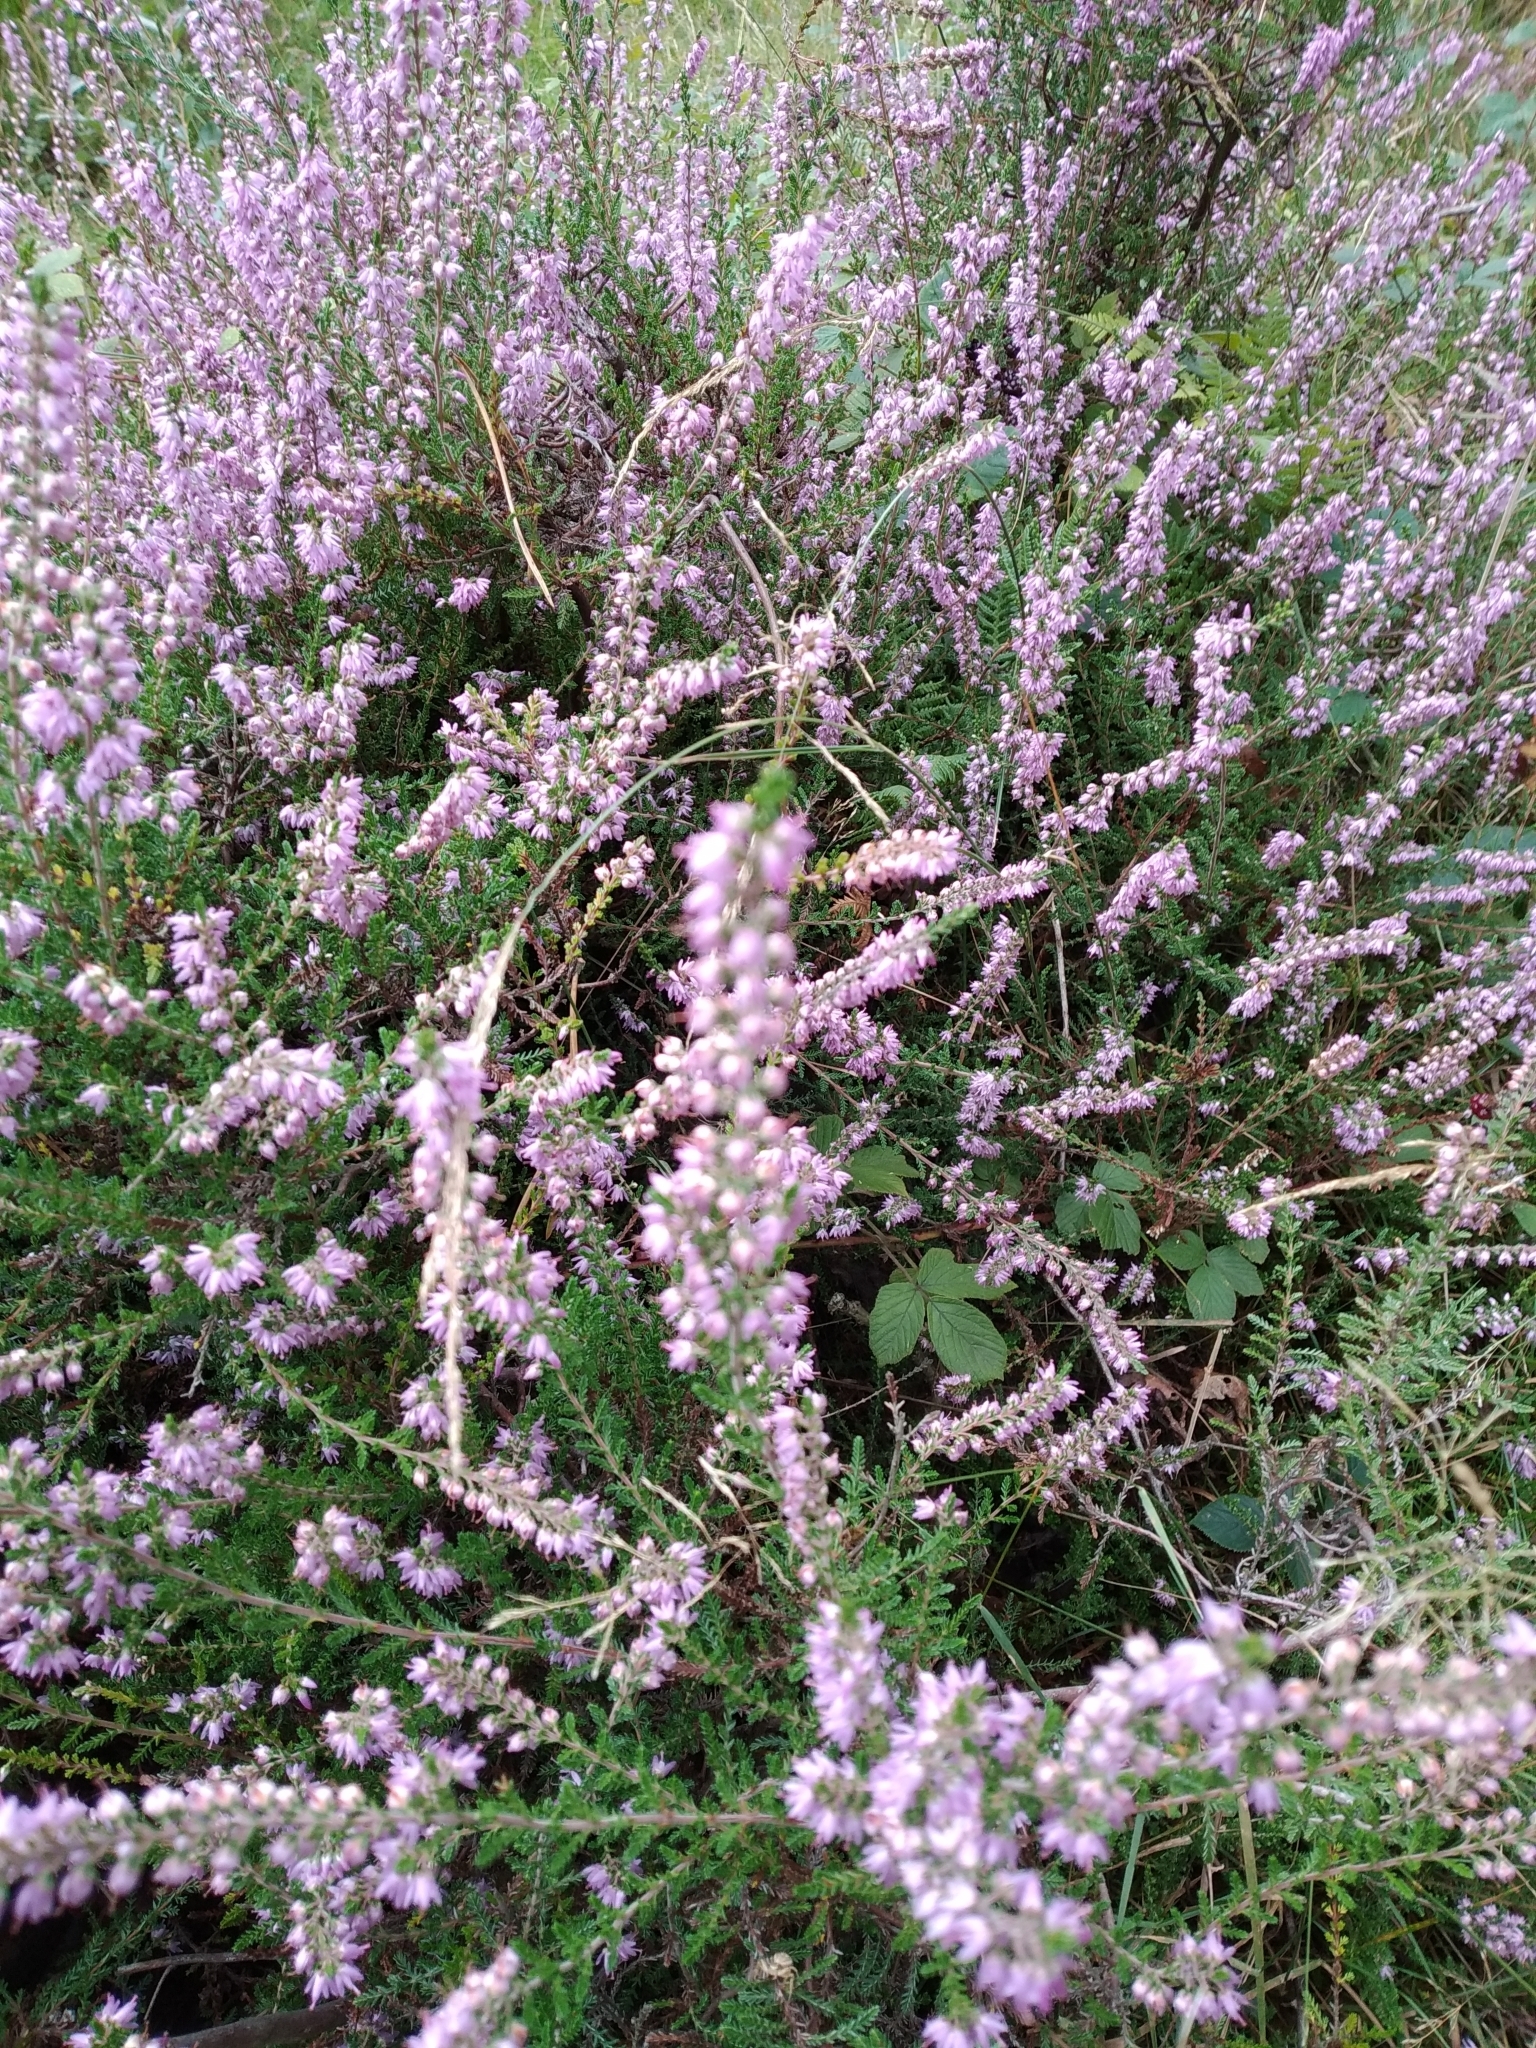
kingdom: Plantae
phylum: Tracheophyta
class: Magnoliopsida
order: Ericales
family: Ericaceae
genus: Calluna
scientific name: Calluna vulgaris
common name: Heather
